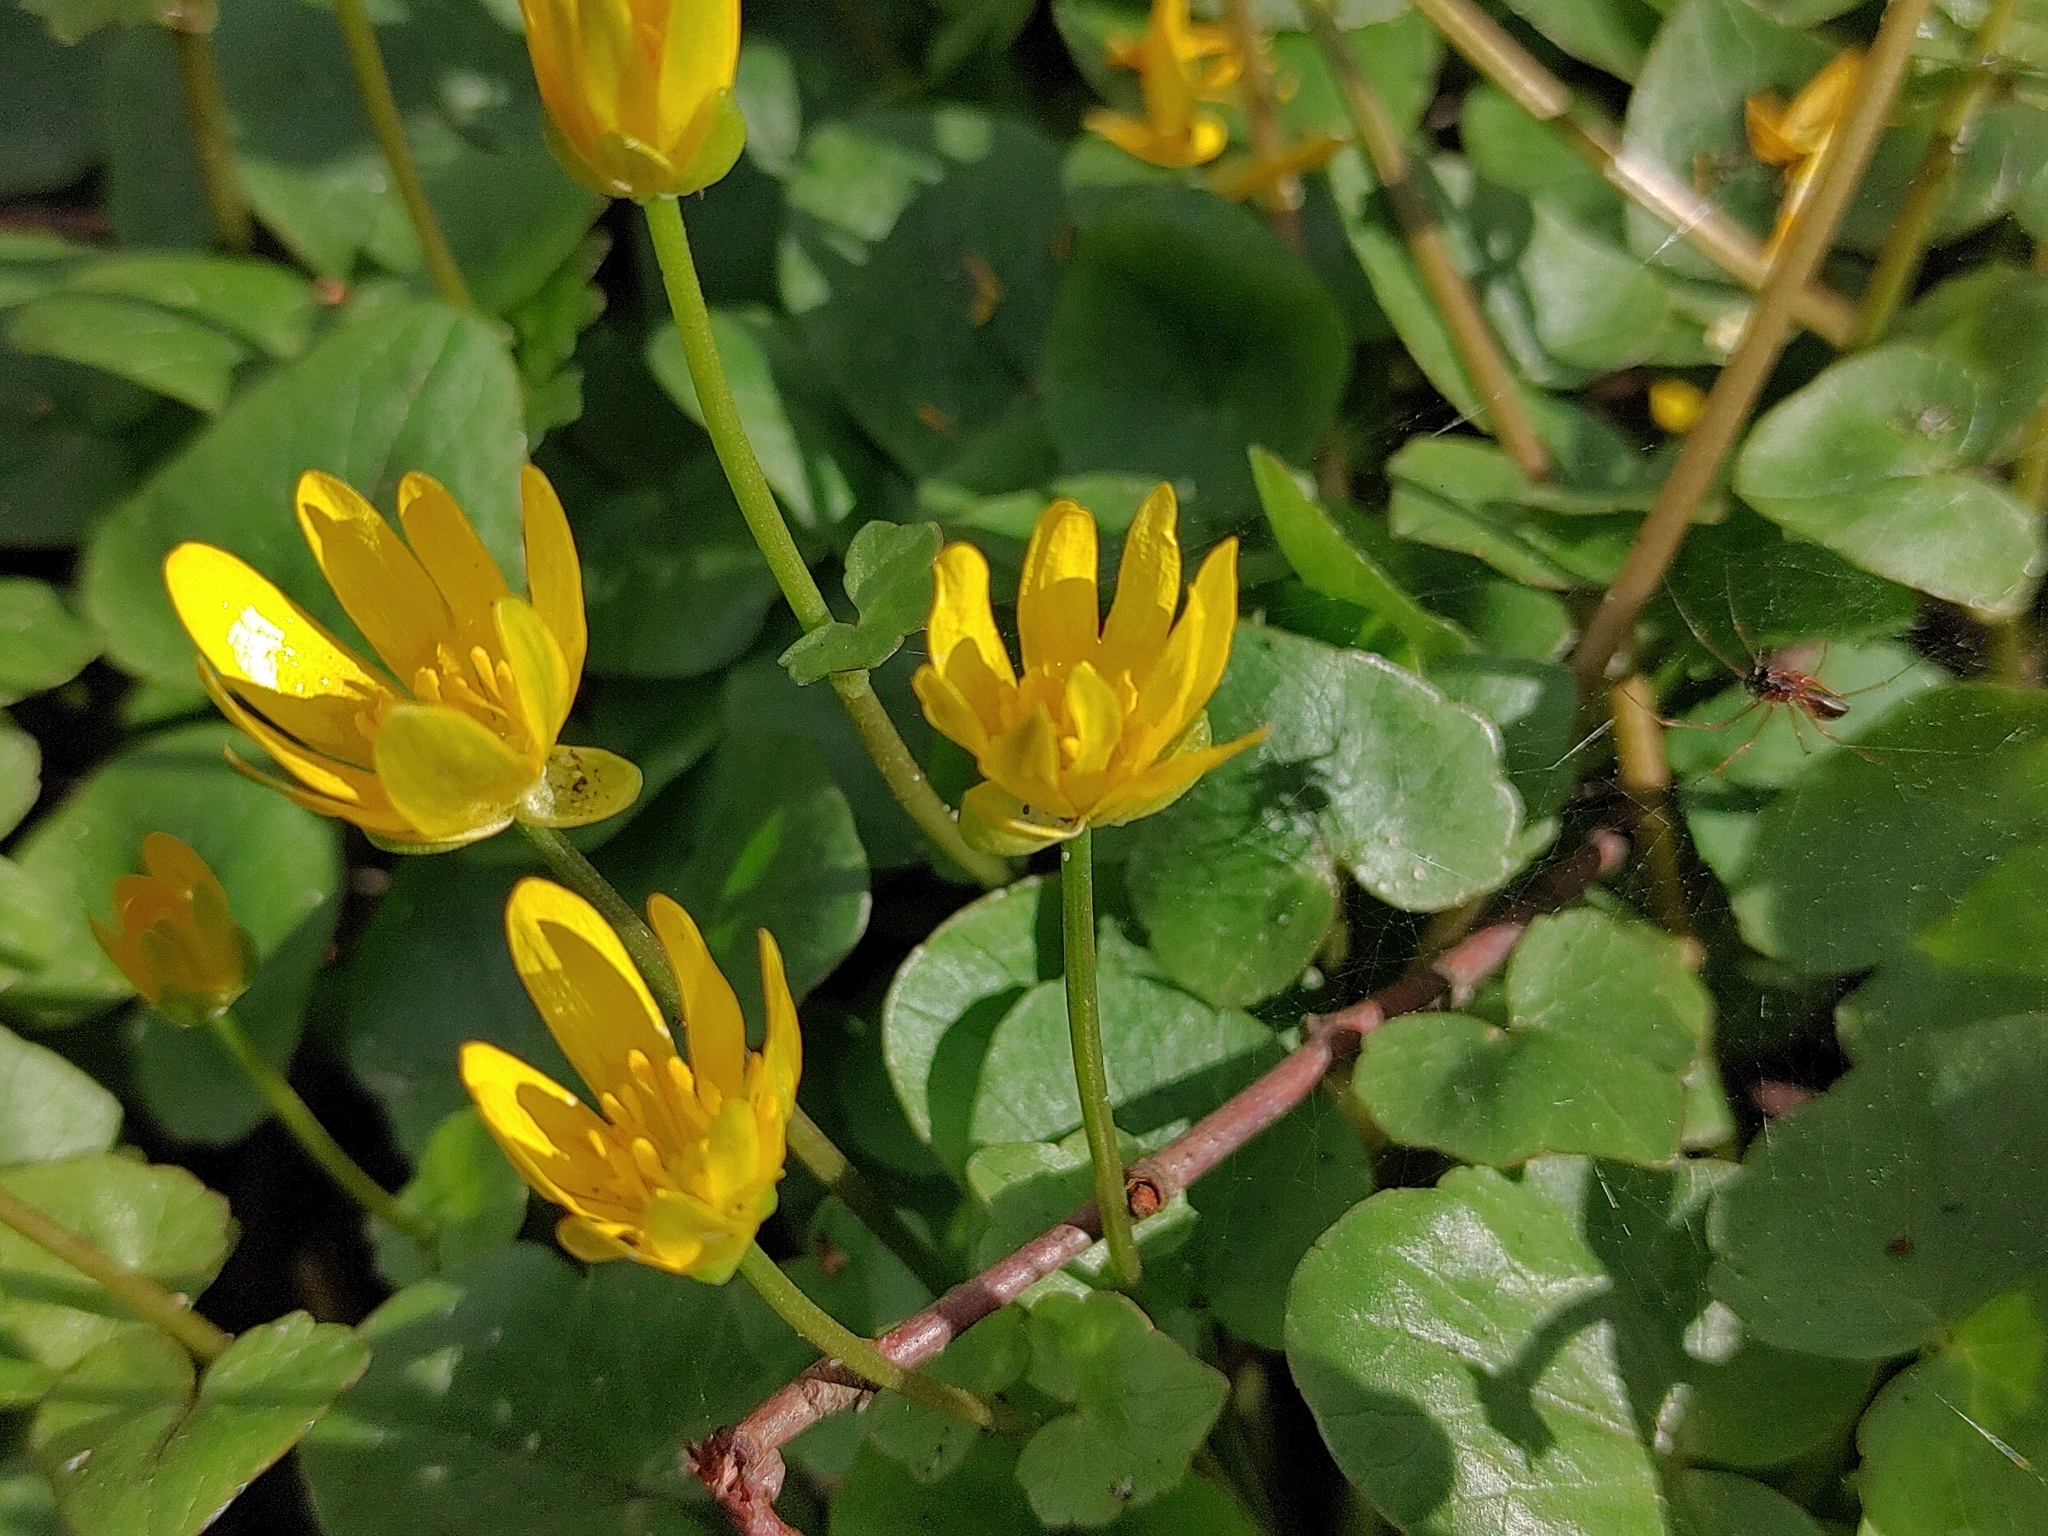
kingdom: Plantae
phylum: Tracheophyta
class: Magnoliopsida
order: Ranunculales
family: Ranunculaceae
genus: Ficaria
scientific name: Ficaria verna
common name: Lesser celandine
